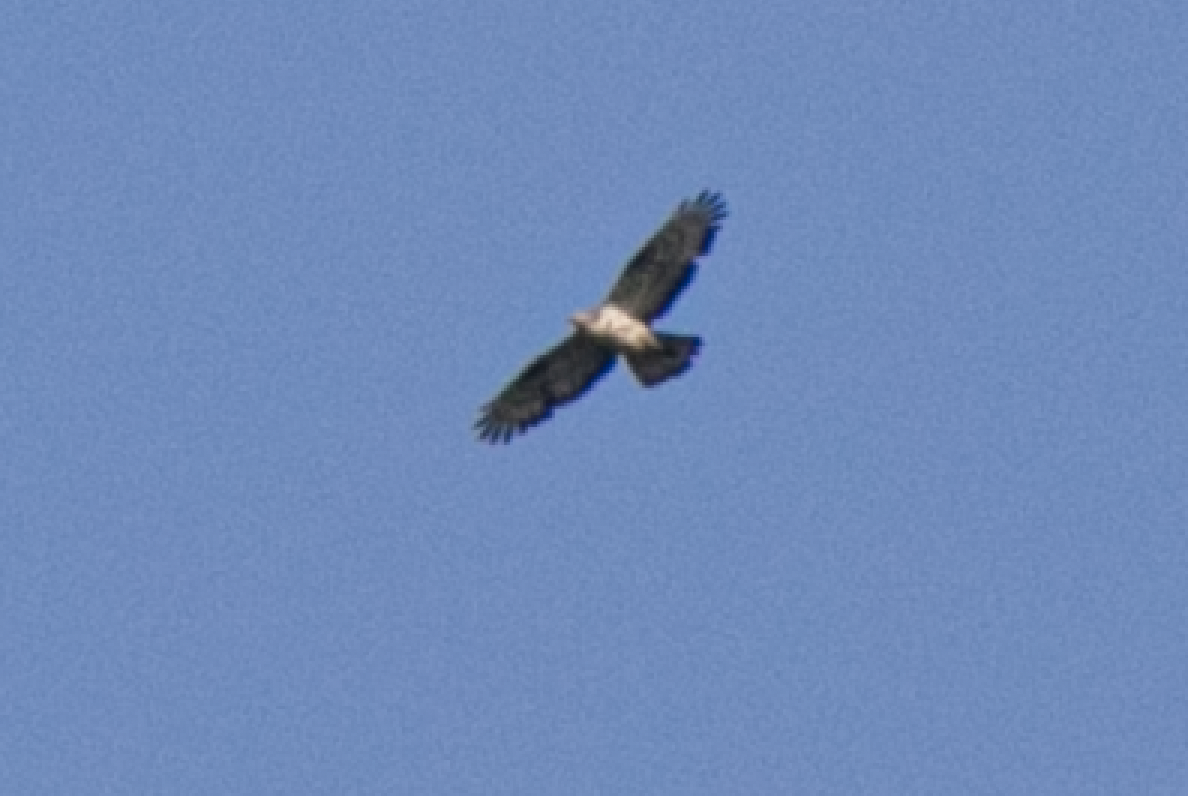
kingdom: Animalia
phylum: Chordata
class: Aves
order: Accipitriformes
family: Accipitridae
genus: Pernis
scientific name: Pernis apivorus
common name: European honey buzzard
